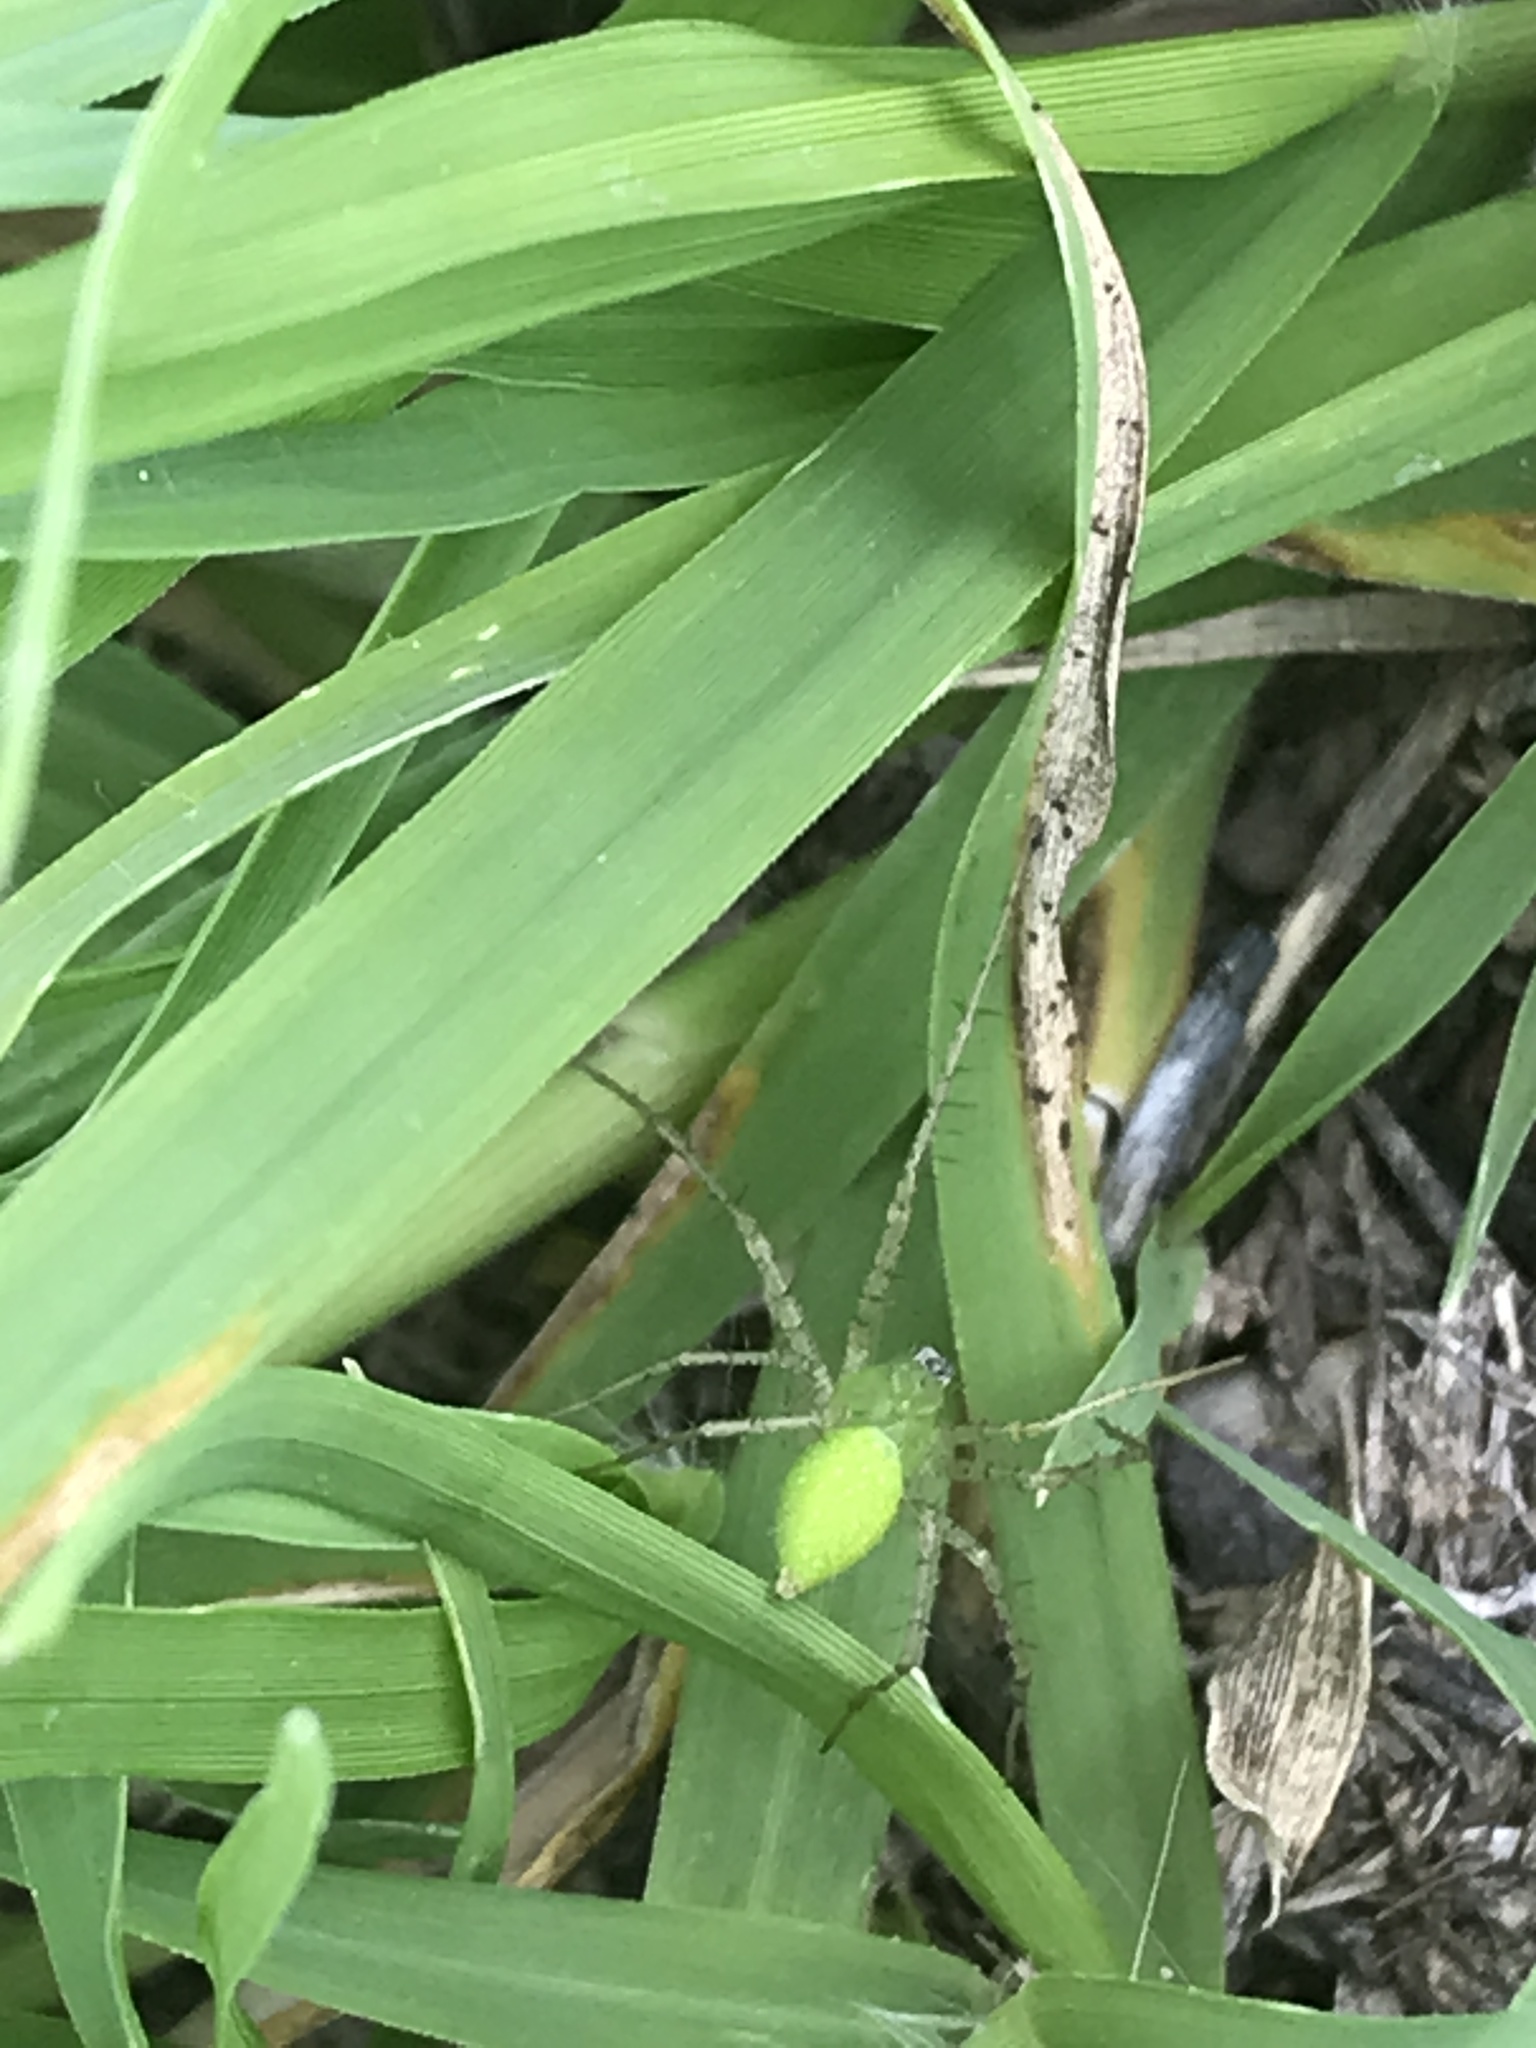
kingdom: Animalia
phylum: Arthropoda
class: Arachnida
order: Araneae
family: Oxyopidae
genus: Peucetia
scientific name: Peucetia longipalpis
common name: Lynx spiders
